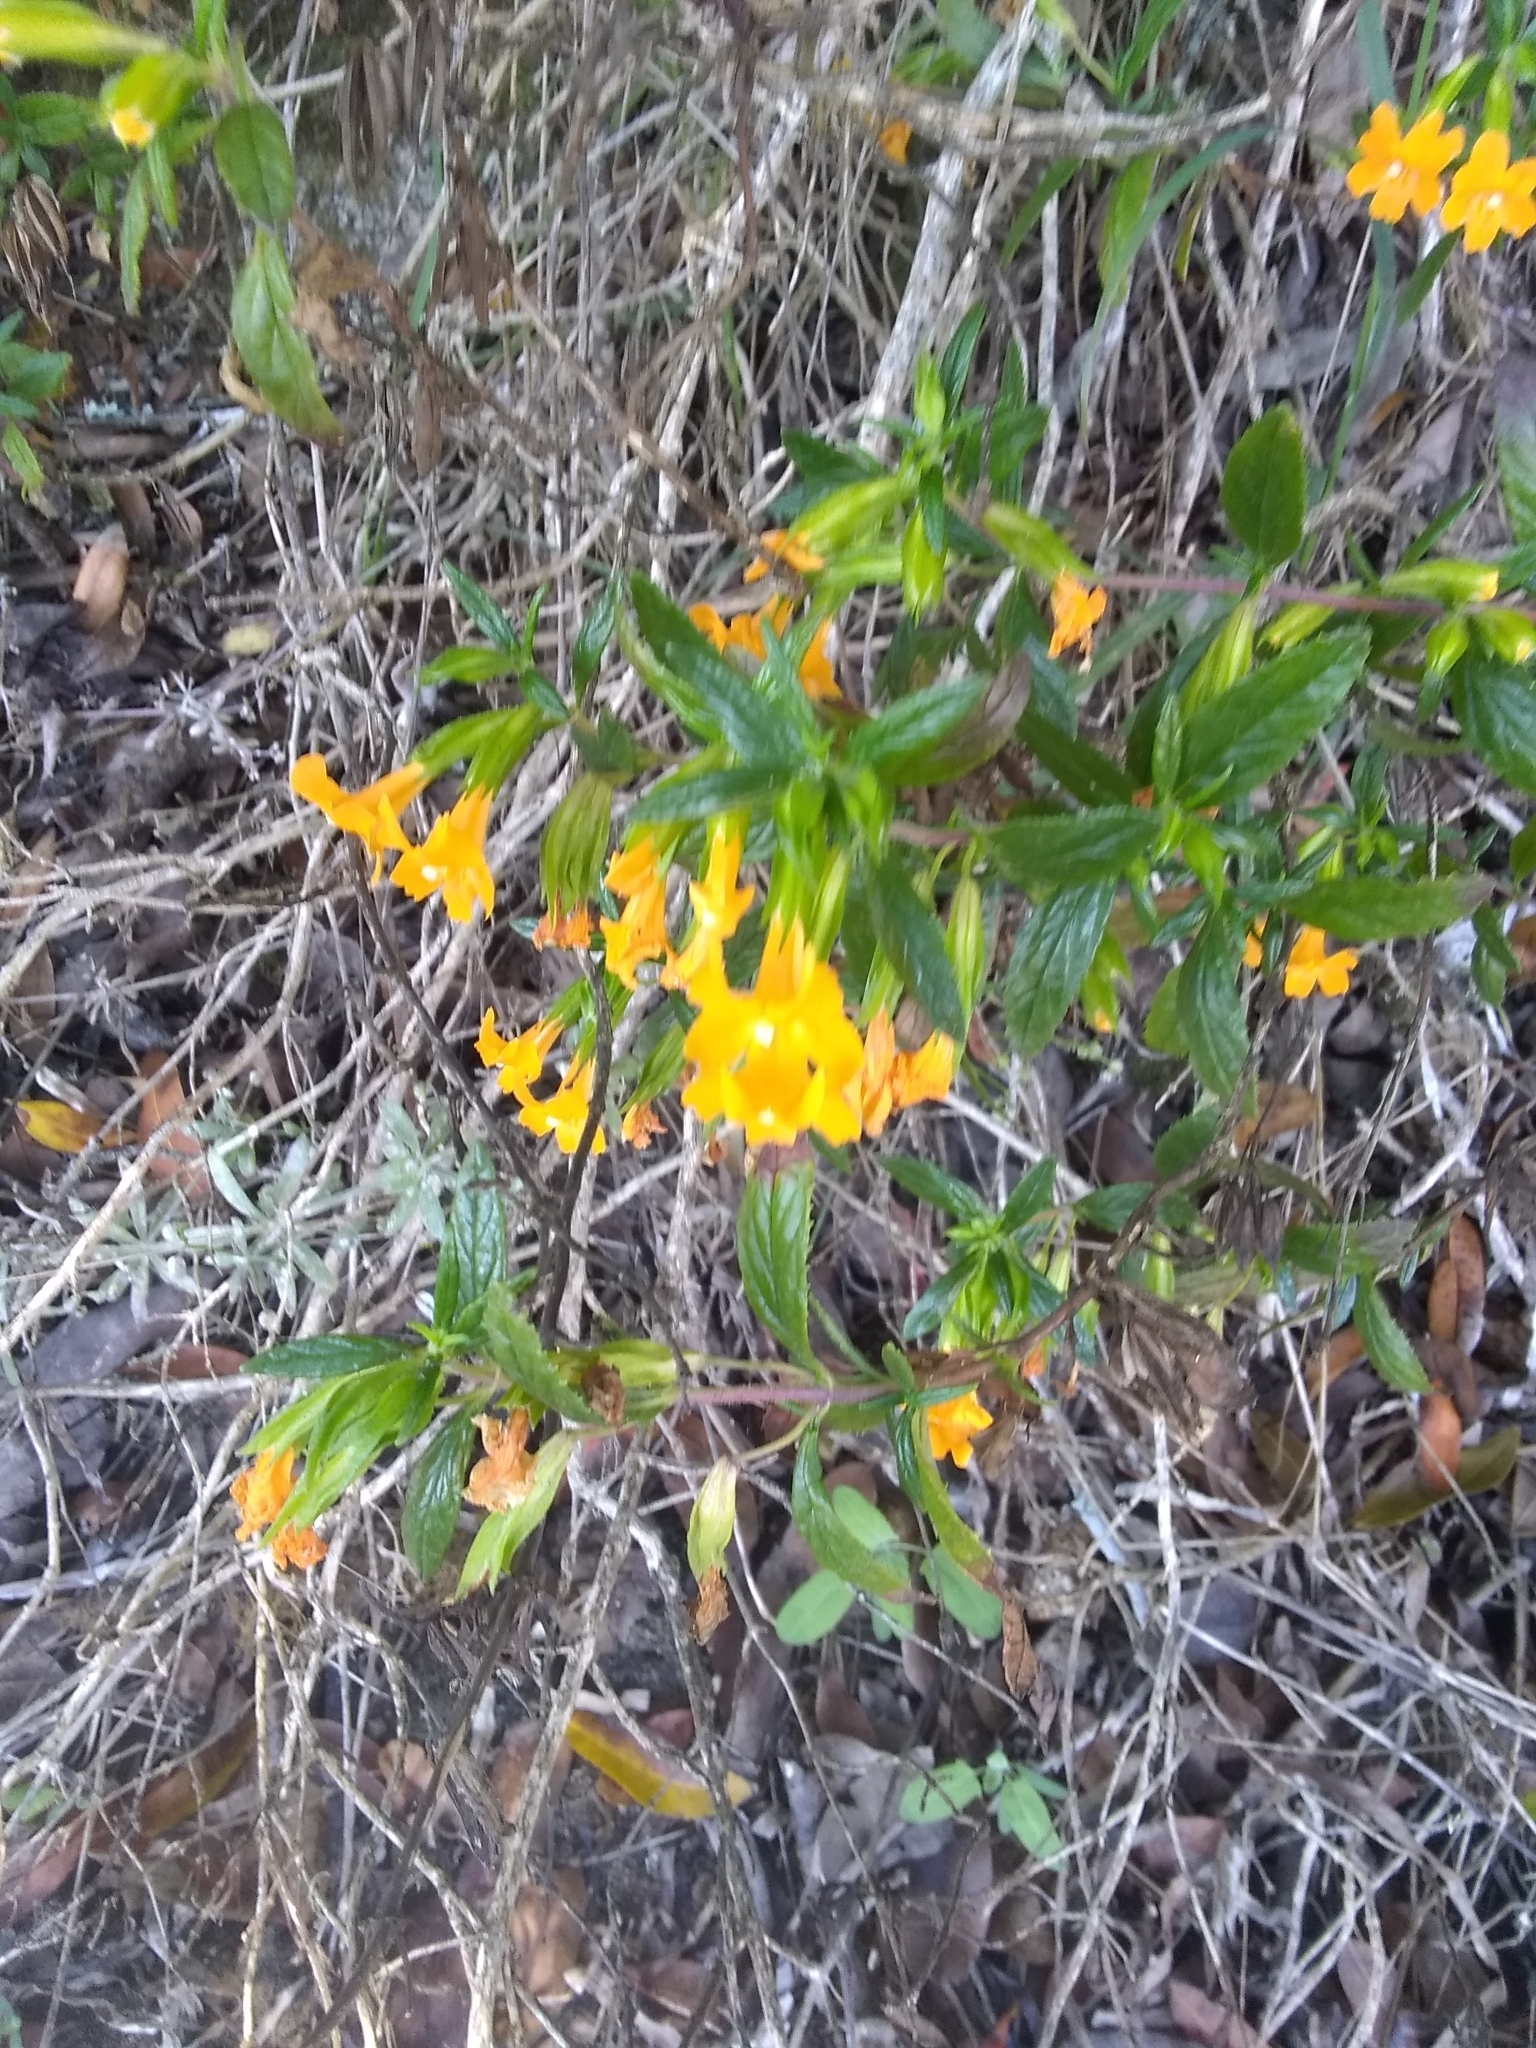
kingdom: Plantae
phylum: Tracheophyta
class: Magnoliopsida
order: Lamiales
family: Phrymaceae
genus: Diplacus
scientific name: Diplacus aurantiacus
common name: Bush monkey-flower
